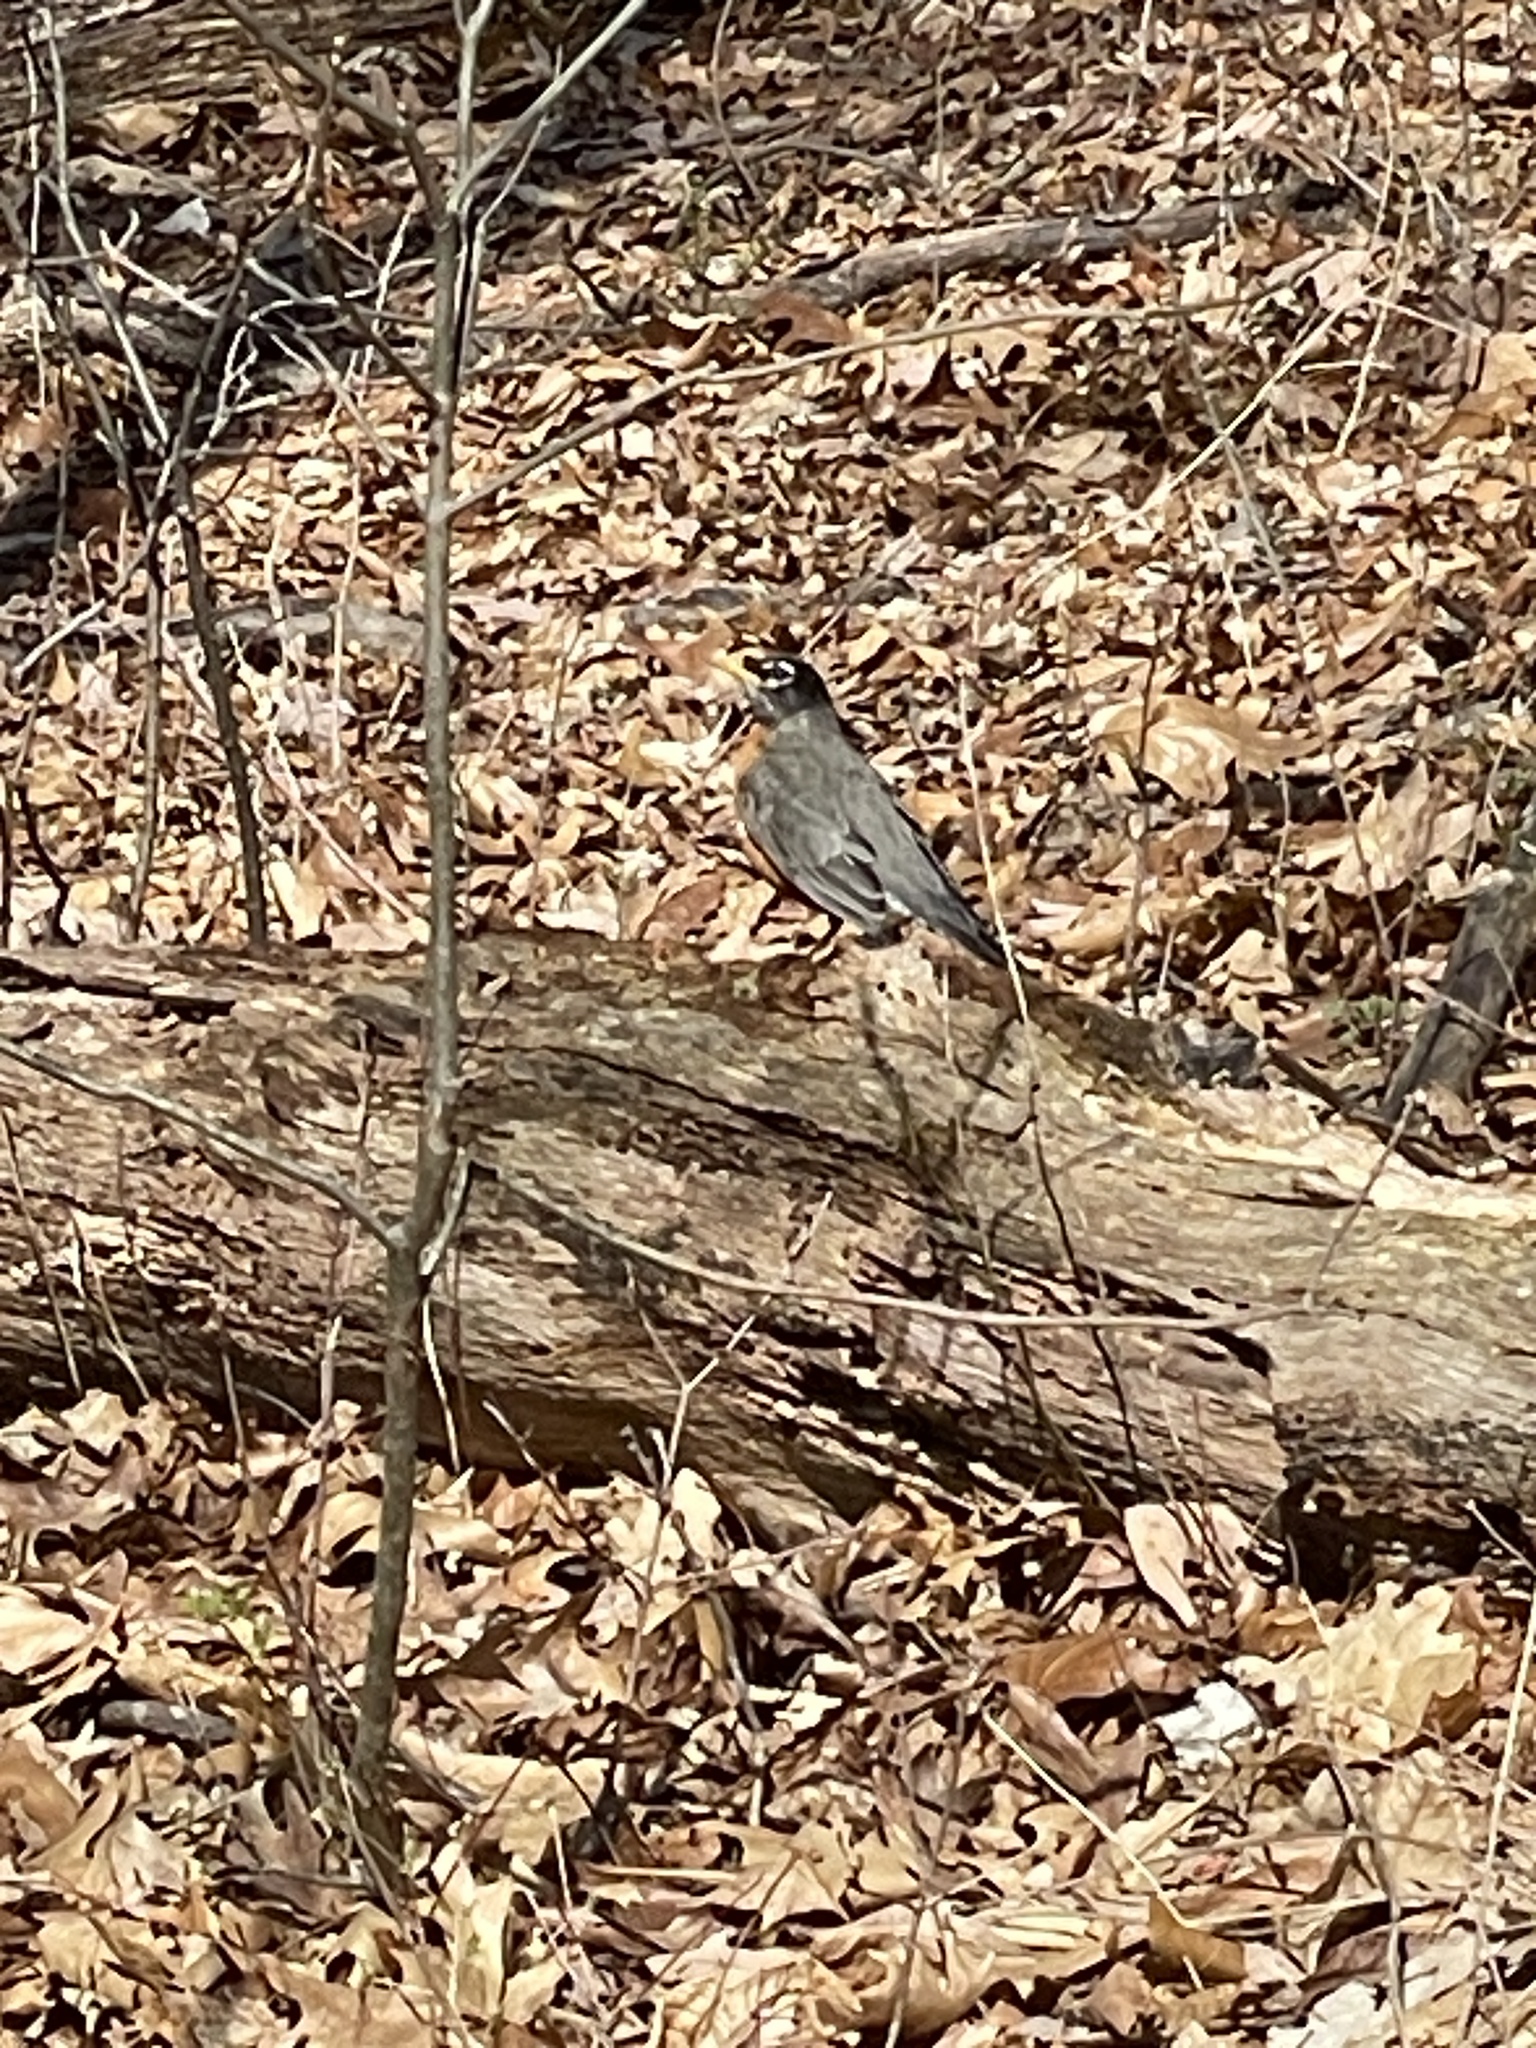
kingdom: Animalia
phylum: Chordata
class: Aves
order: Passeriformes
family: Turdidae
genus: Turdus
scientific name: Turdus migratorius
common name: American robin
